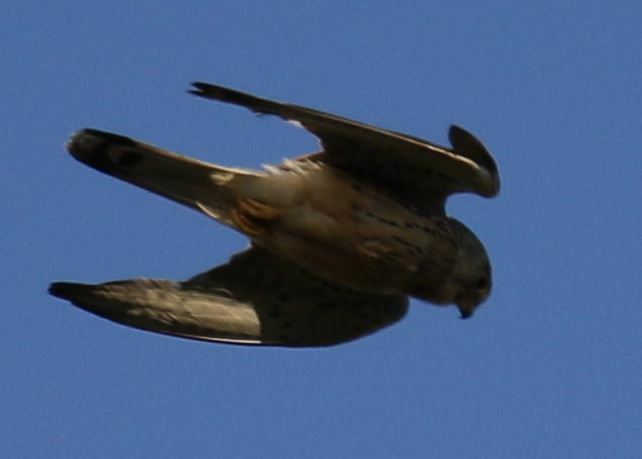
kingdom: Animalia
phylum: Chordata
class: Aves
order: Falconiformes
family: Falconidae
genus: Falco
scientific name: Falco tinnunculus
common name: Common kestrel
